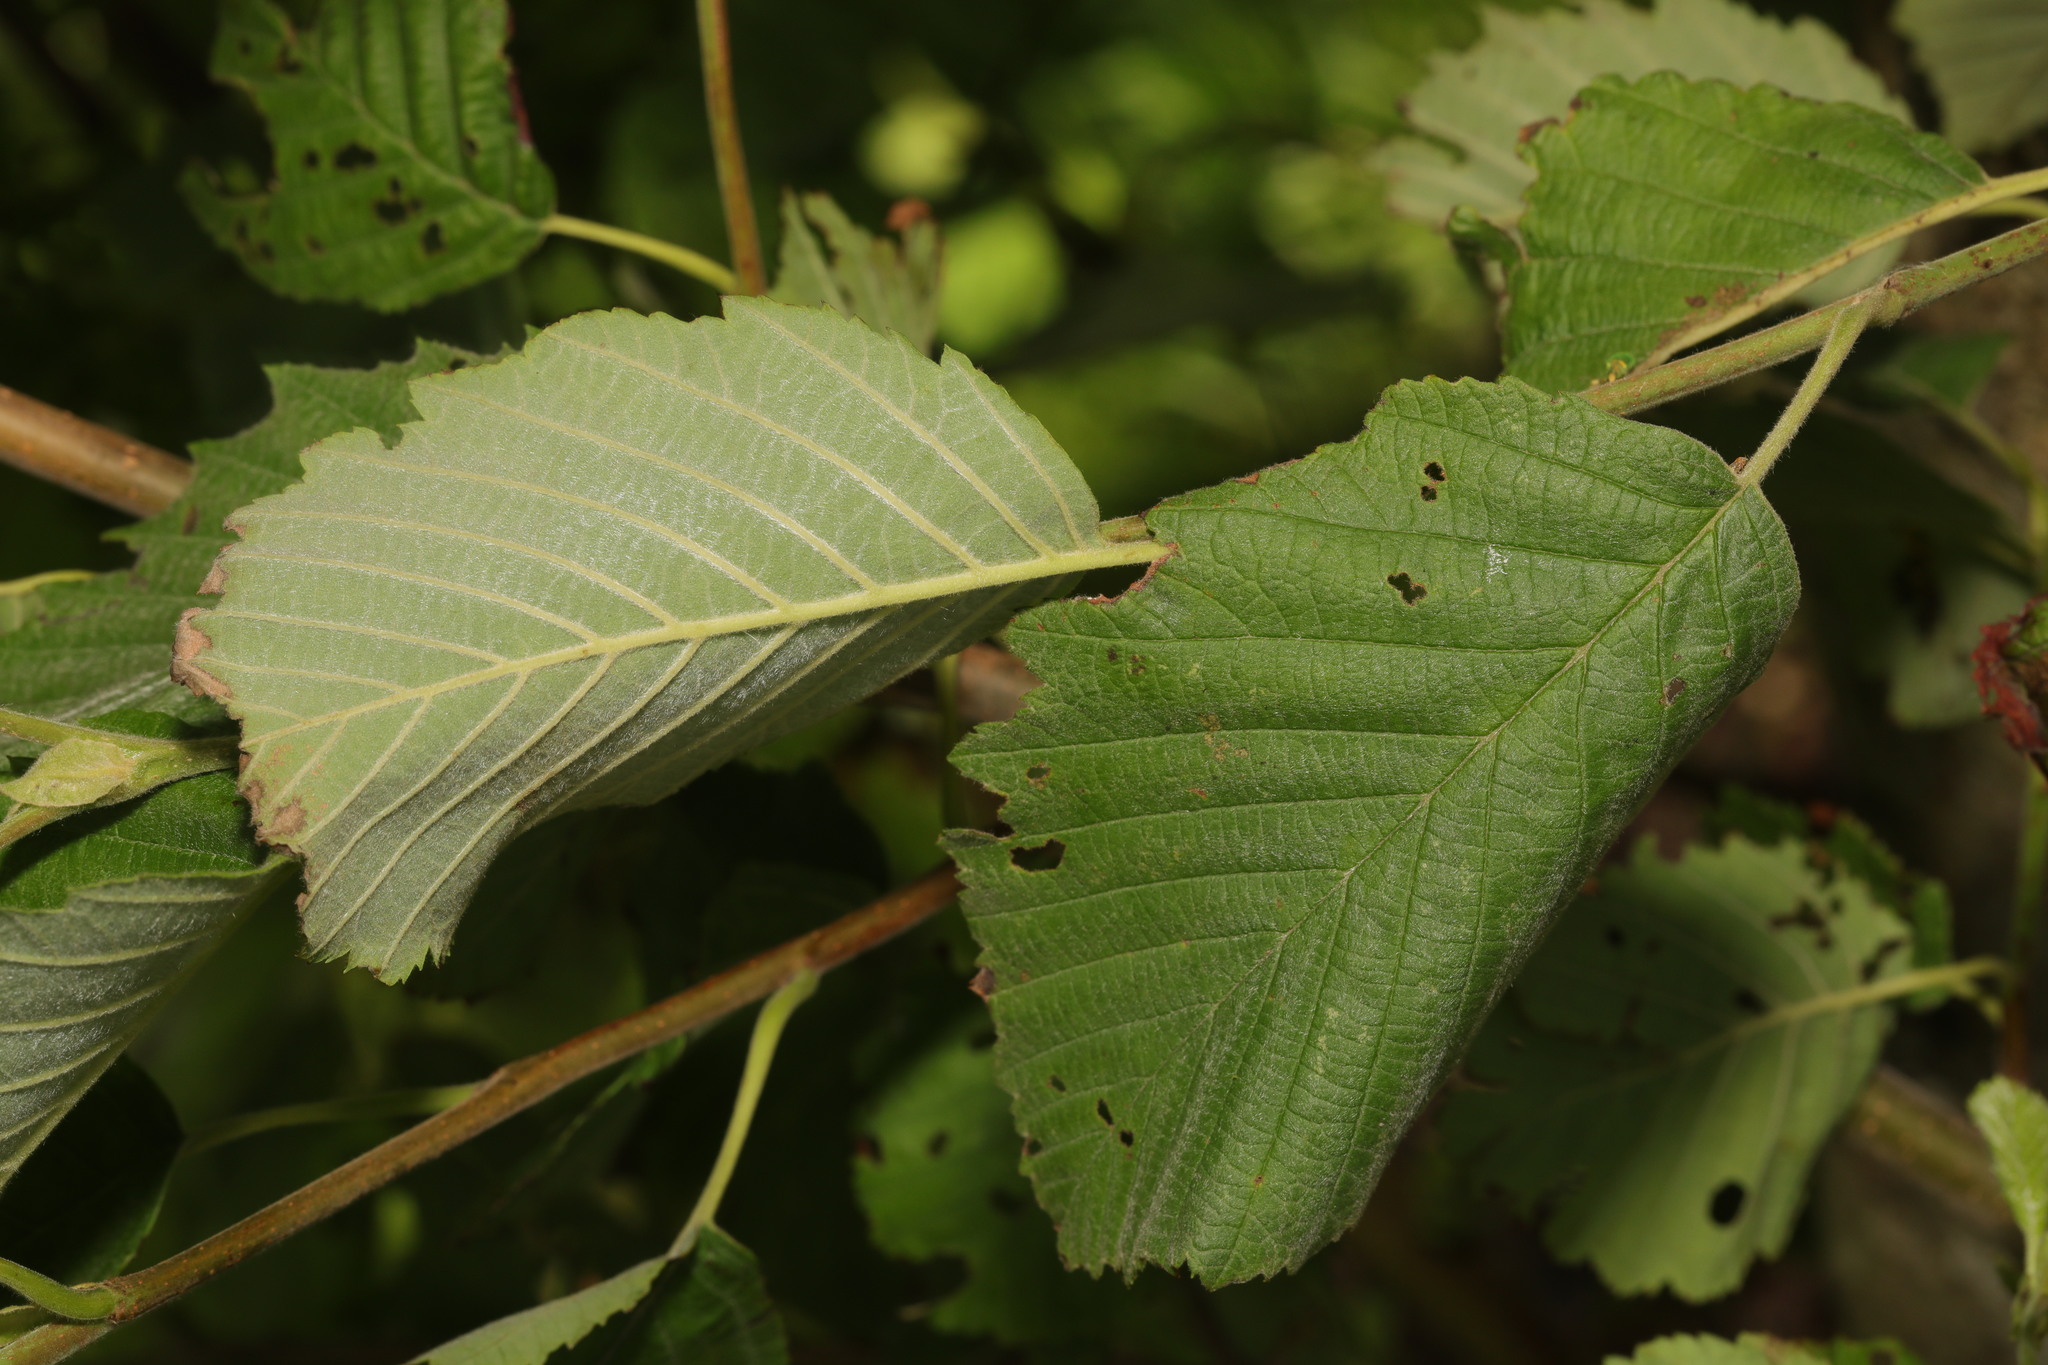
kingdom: Plantae
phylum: Tracheophyta
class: Magnoliopsida
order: Fagales
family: Betulaceae
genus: Alnus
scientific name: Alnus incana
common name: Grey alder
